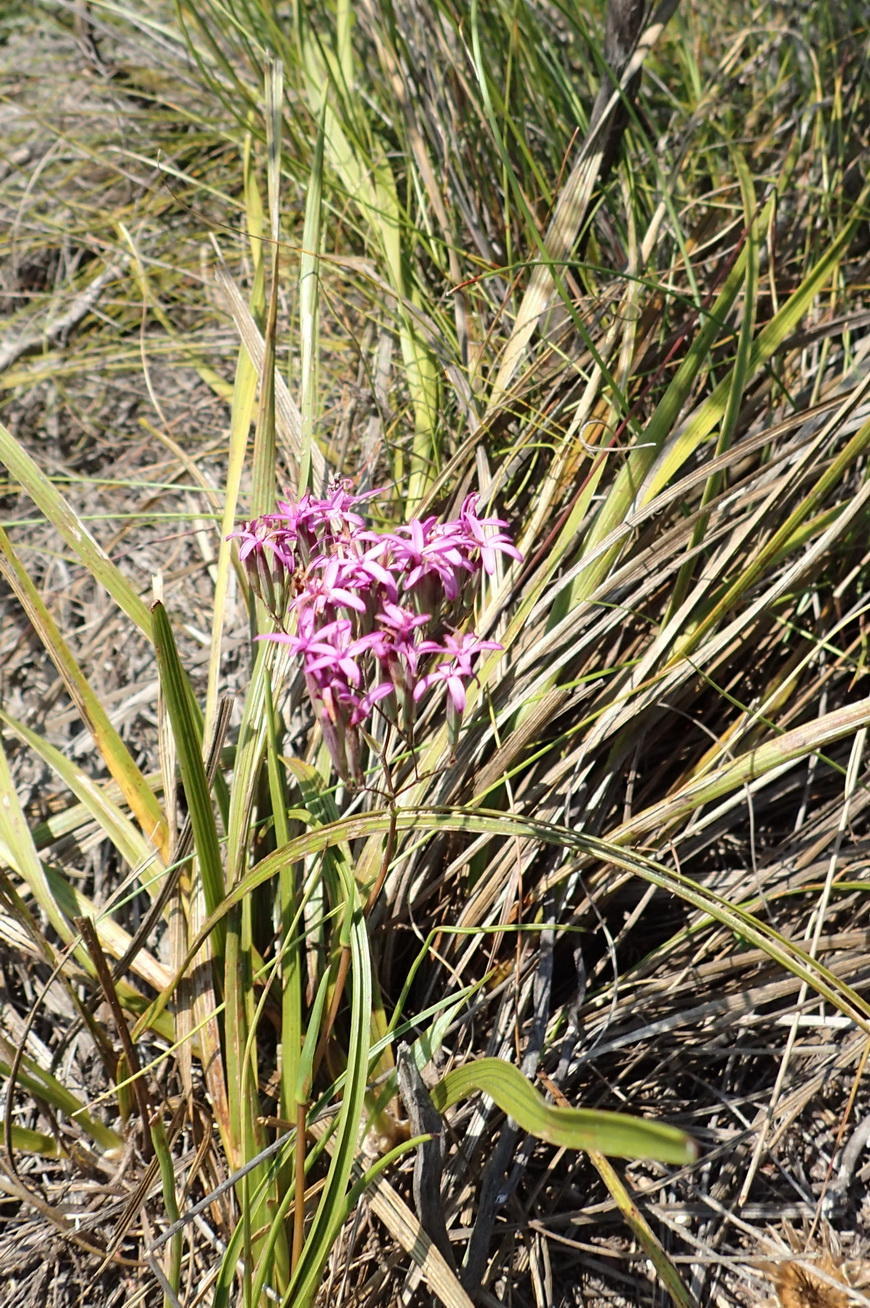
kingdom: Plantae
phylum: Tracheophyta
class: Magnoliopsida
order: Asterales
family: Asteraceae
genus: Corymbium
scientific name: Corymbium glabrum
